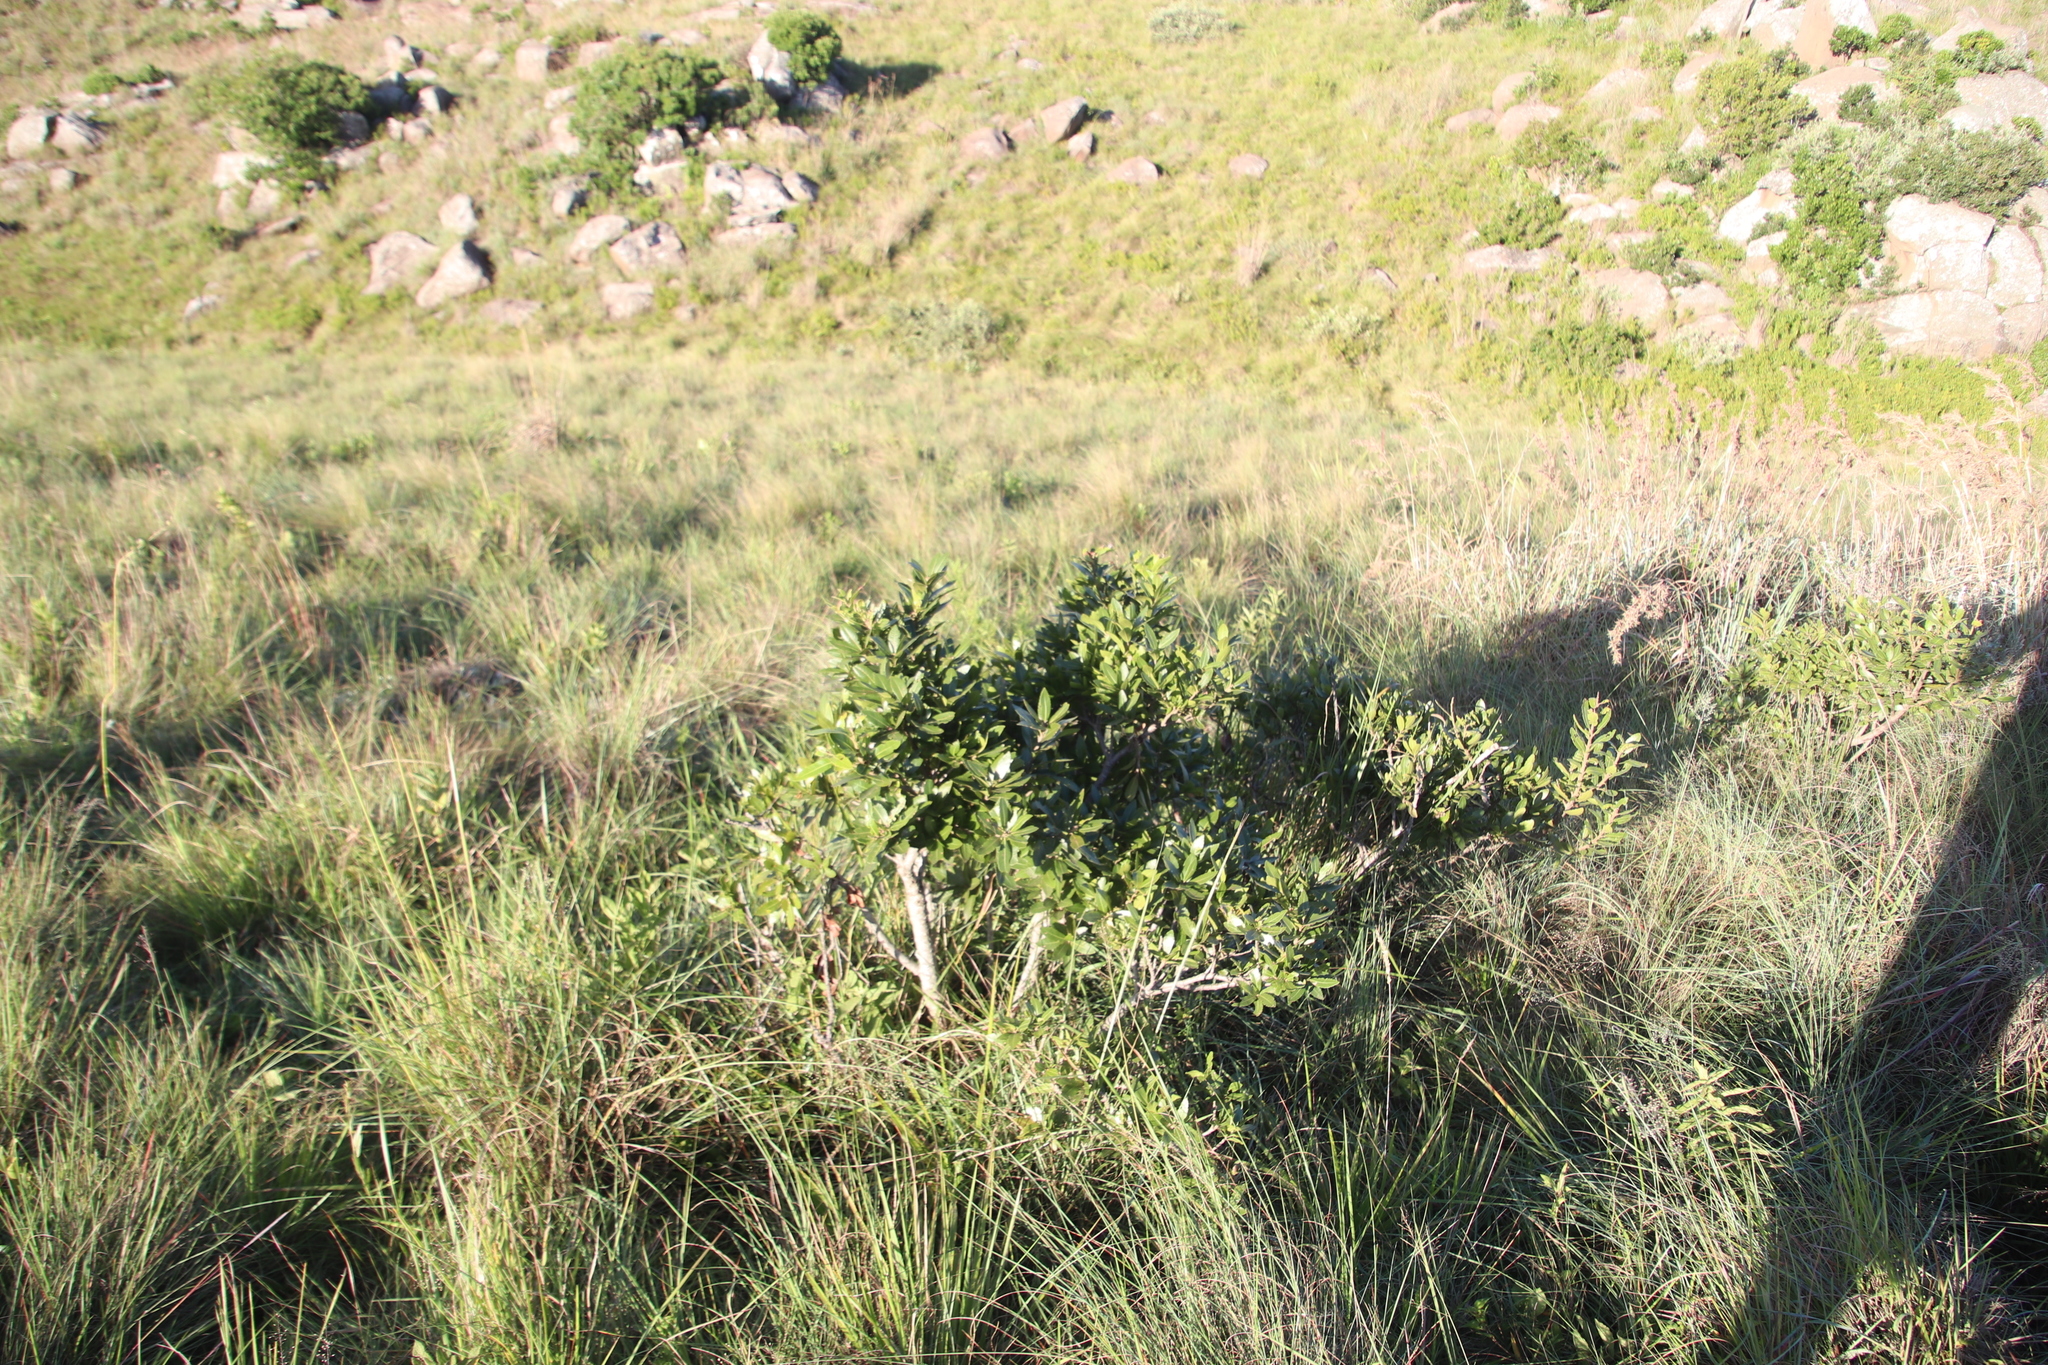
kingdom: Plantae
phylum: Tracheophyta
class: Magnoliopsida
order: Fagales
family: Myricaceae
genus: Morella
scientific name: Morella pilulifera
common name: Broad-leaved waxberry
